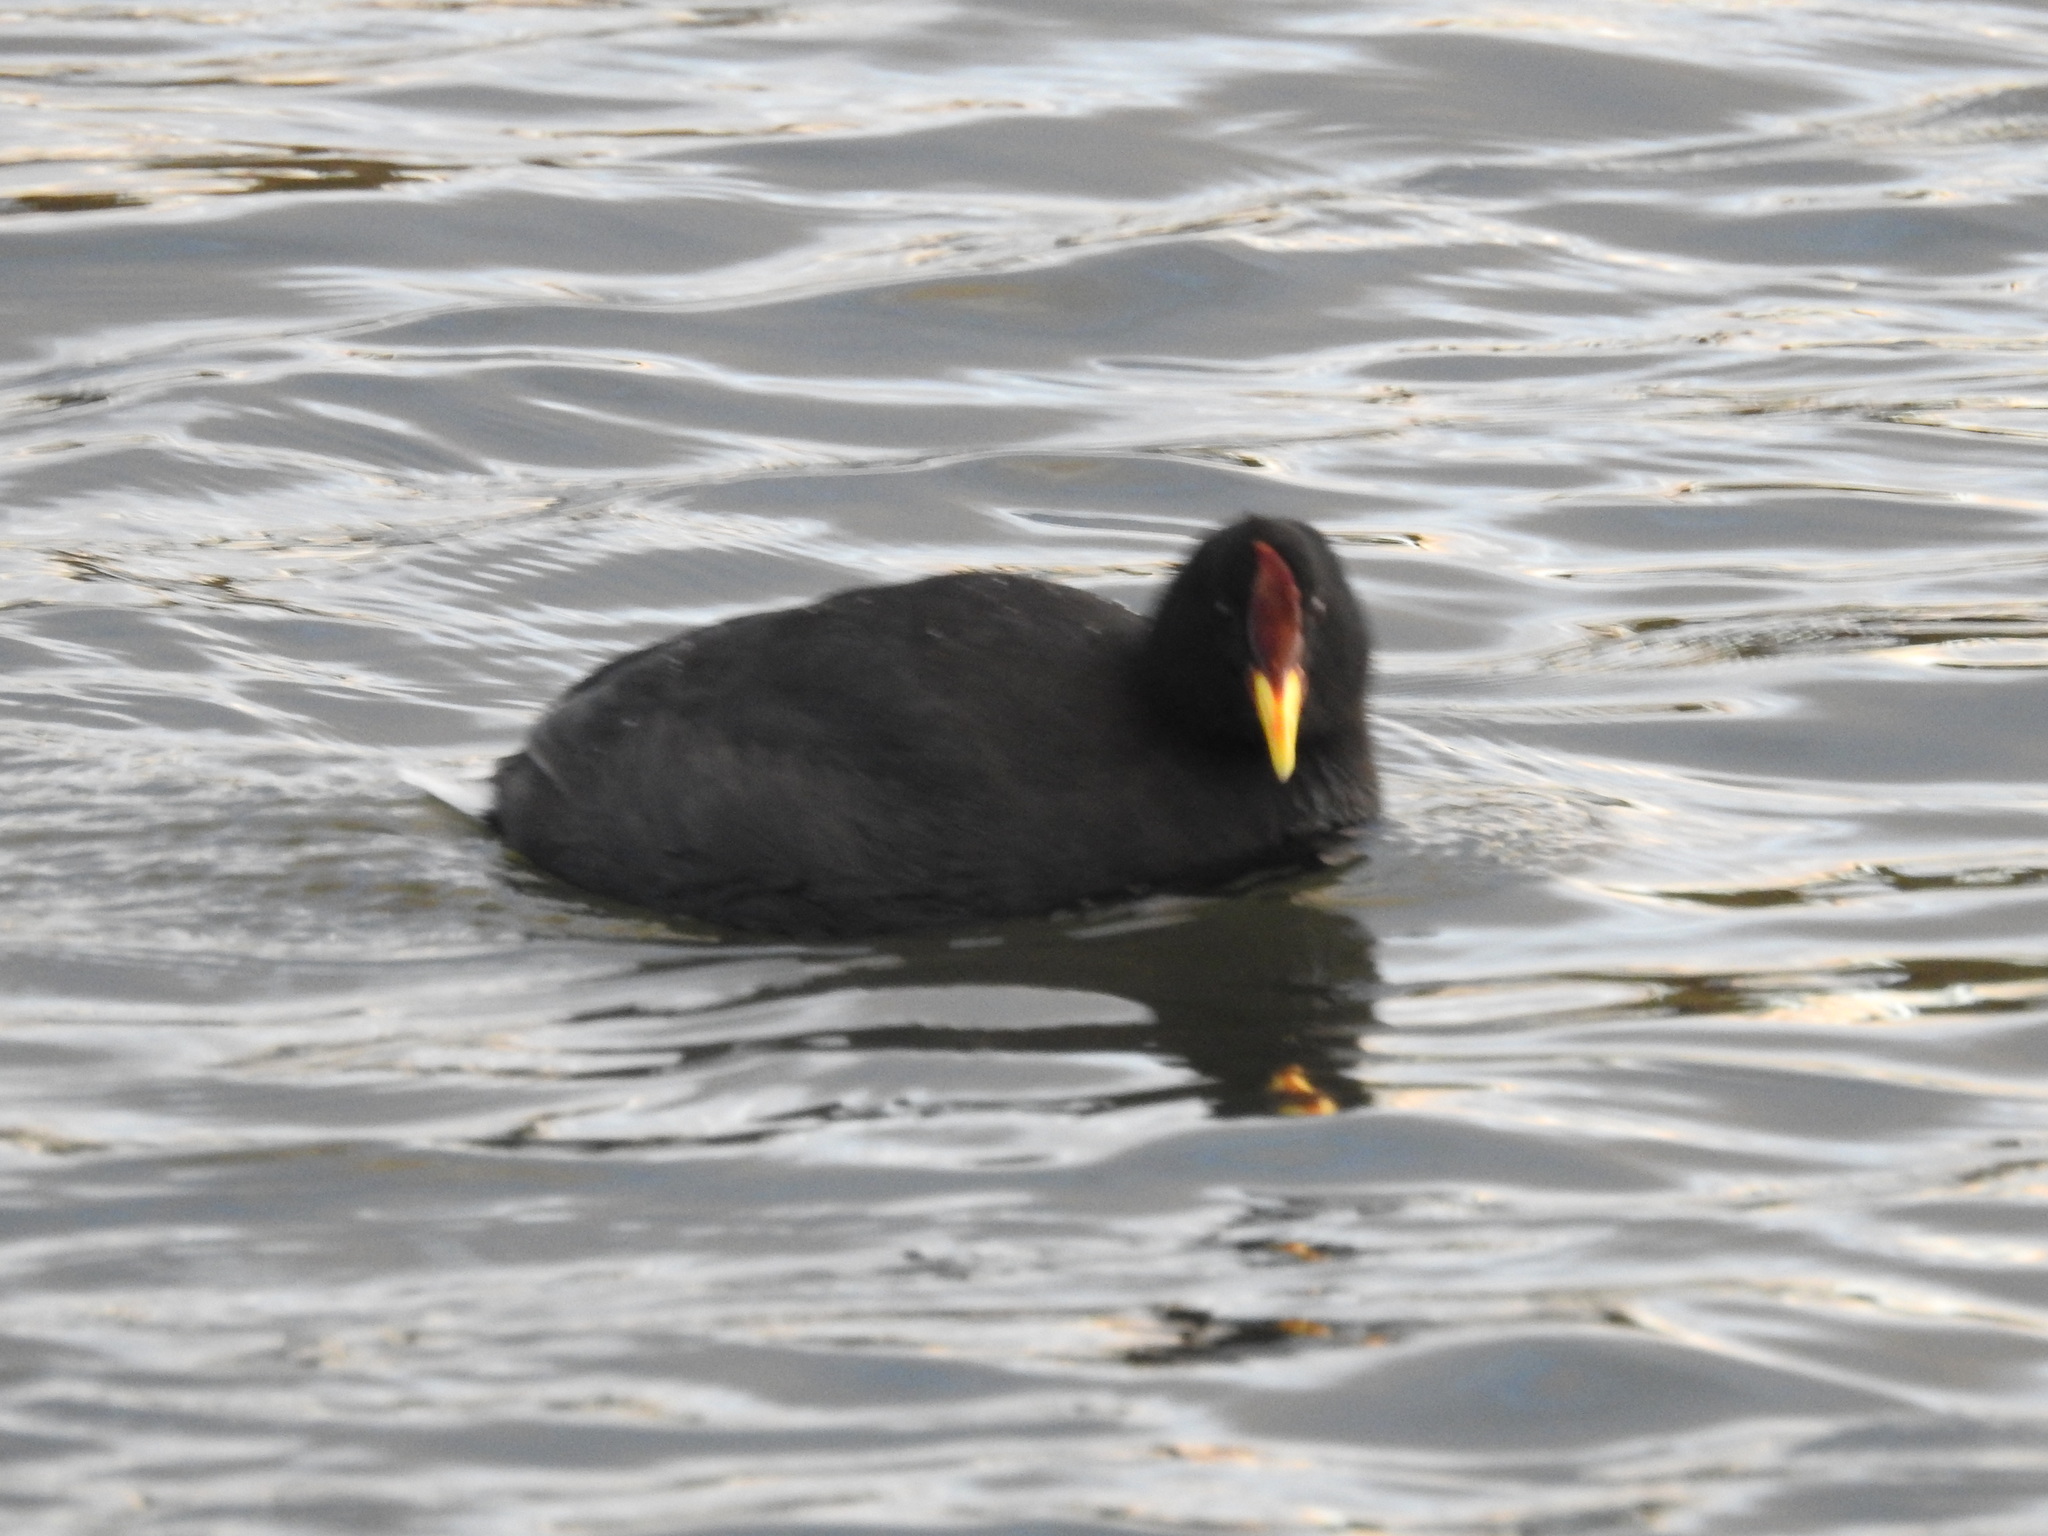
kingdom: Animalia
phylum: Chordata
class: Aves
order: Gruiformes
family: Rallidae
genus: Fulica
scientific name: Fulica rufifrons
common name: Red-fronted coot
